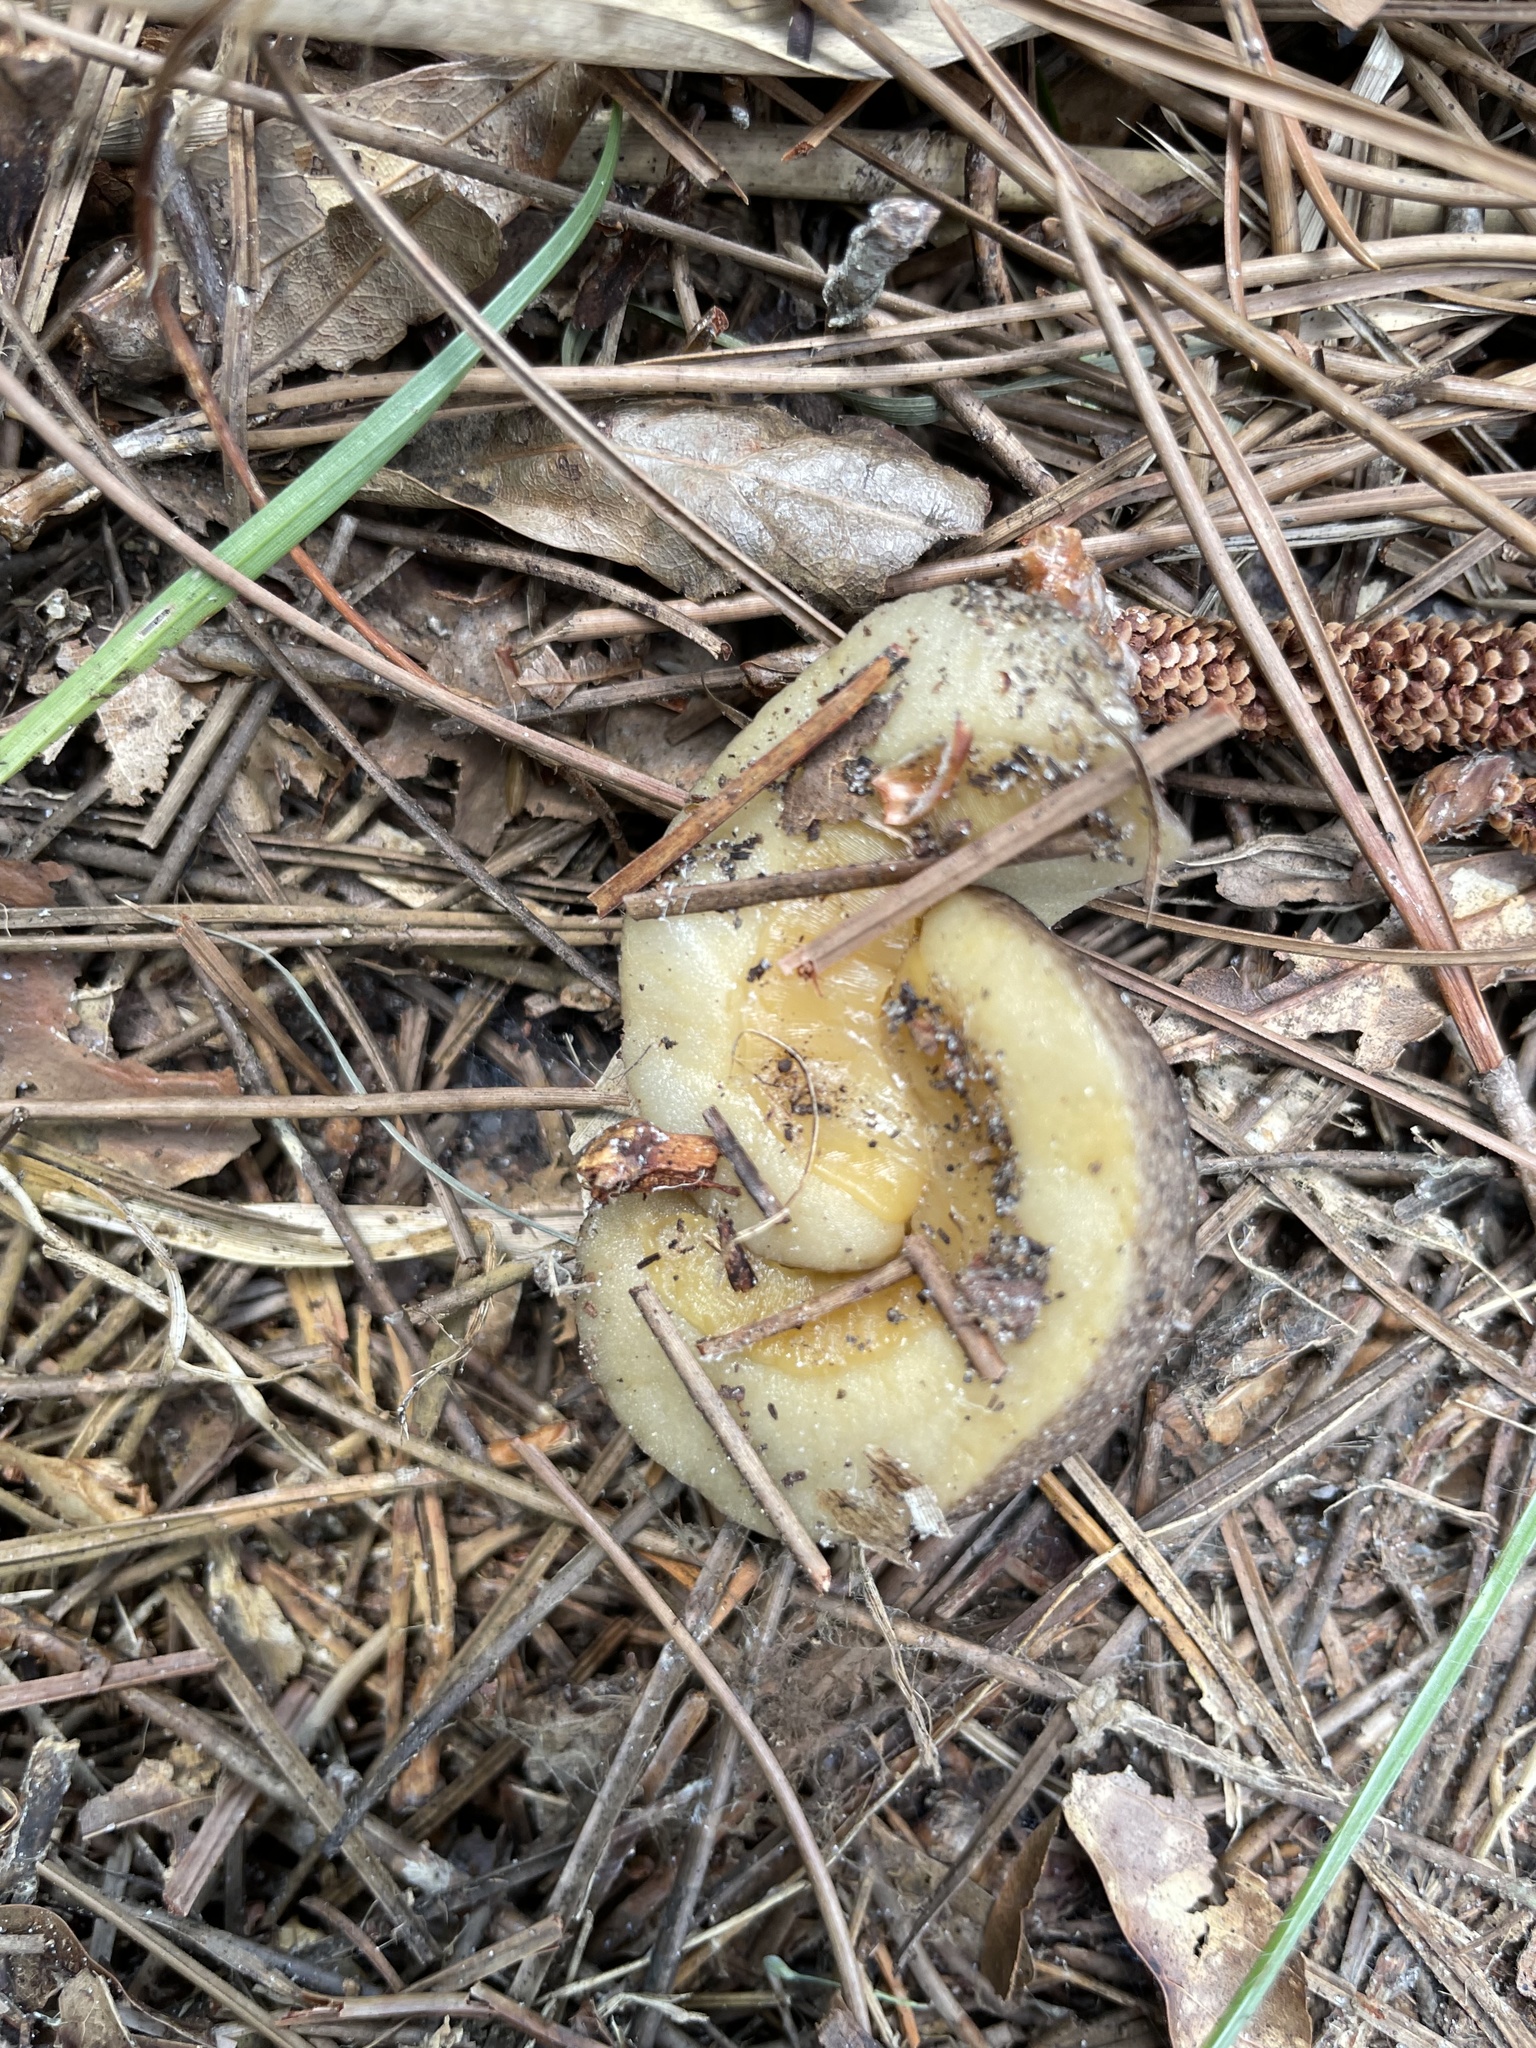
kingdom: Animalia
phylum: Mollusca
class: Gastropoda
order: Systellommatophora
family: Veronicellidae
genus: Leidyula
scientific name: Leidyula floridana
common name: Florida leatherleaf
